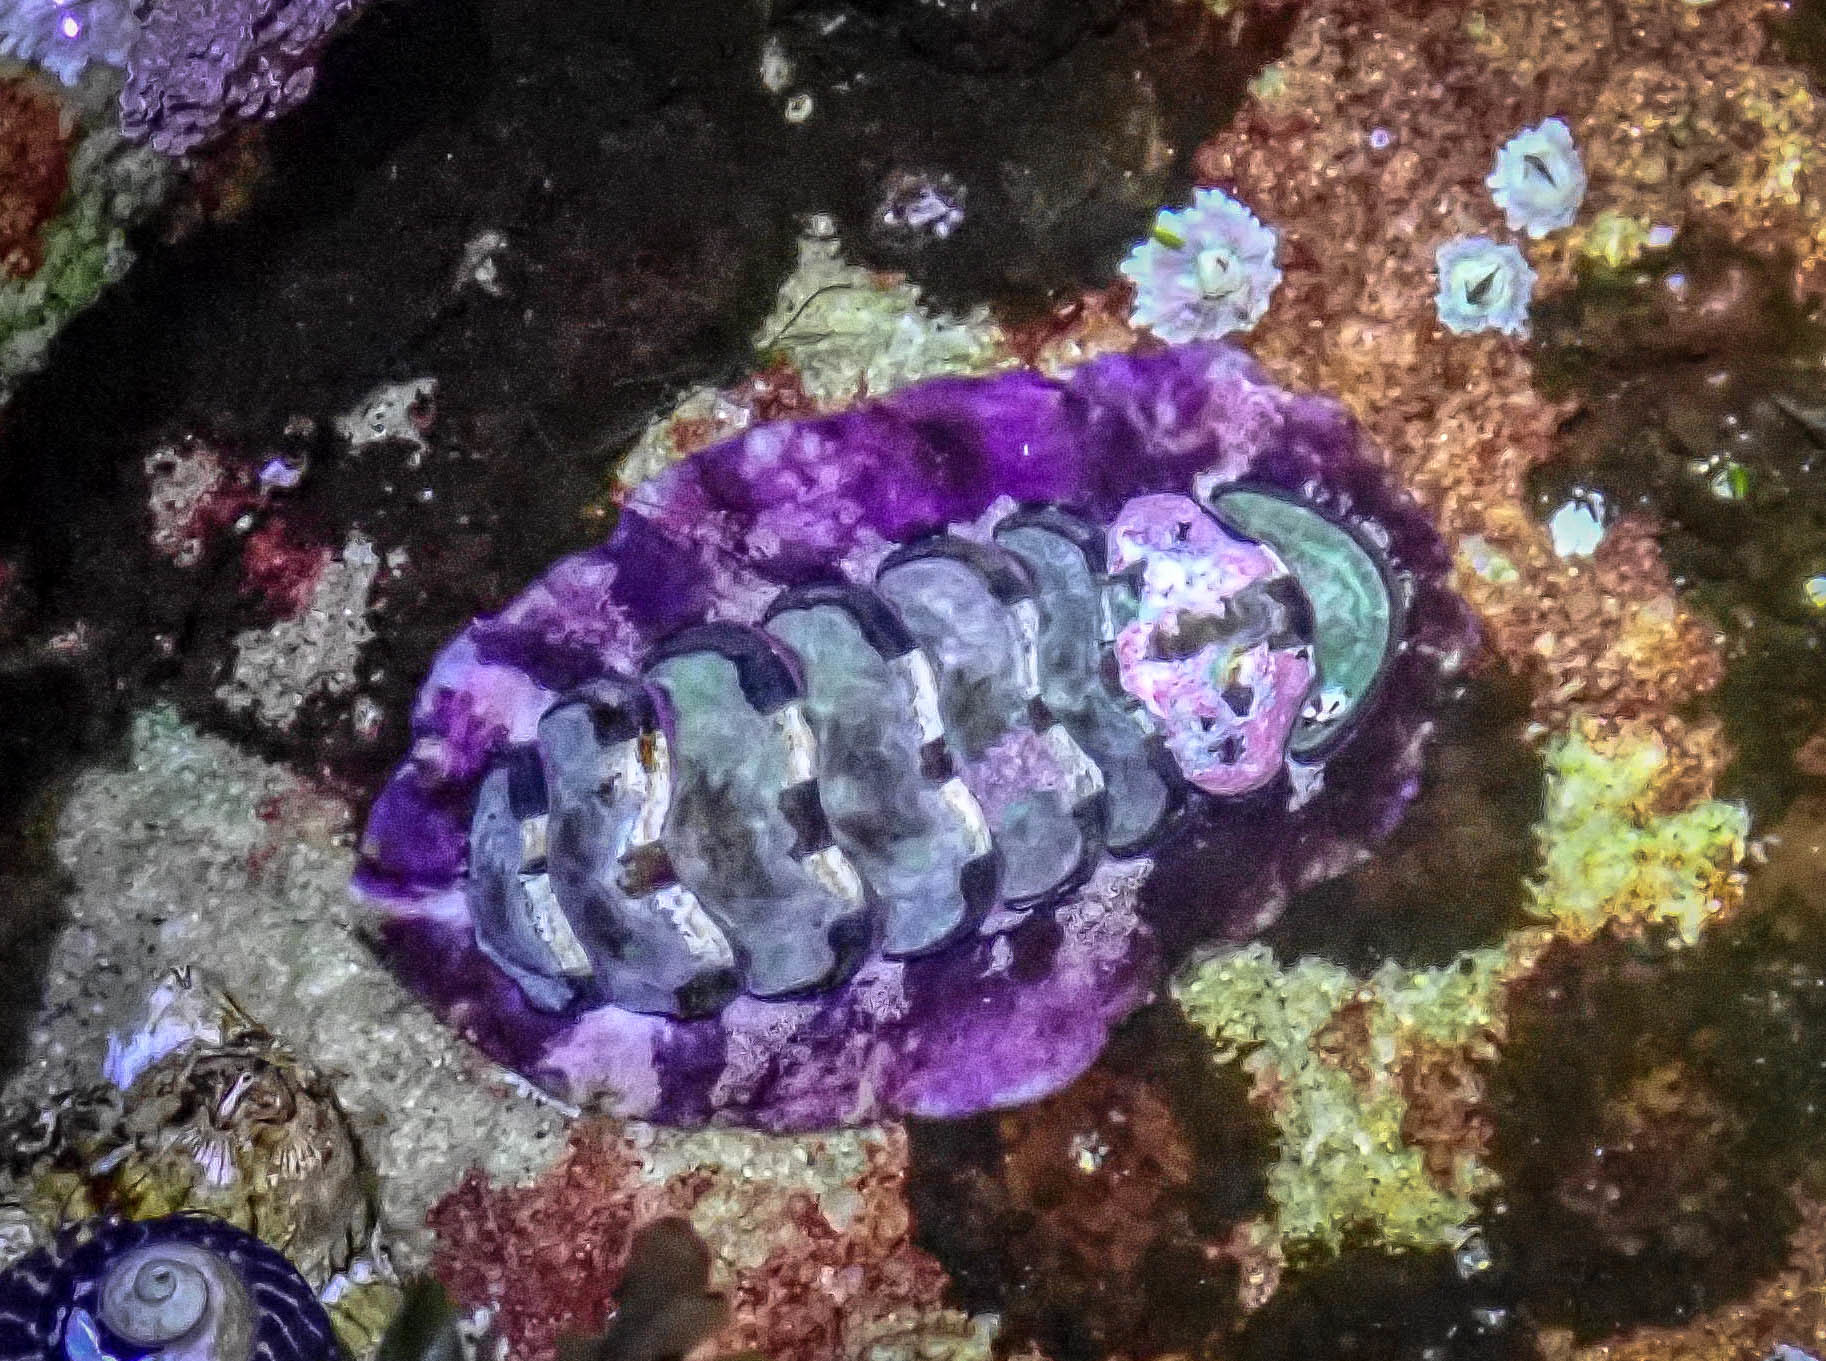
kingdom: Animalia
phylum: Mollusca
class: Polyplacophora
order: Chitonida
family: Chitonidae
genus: Onithochiton
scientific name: Onithochiton quercinus
